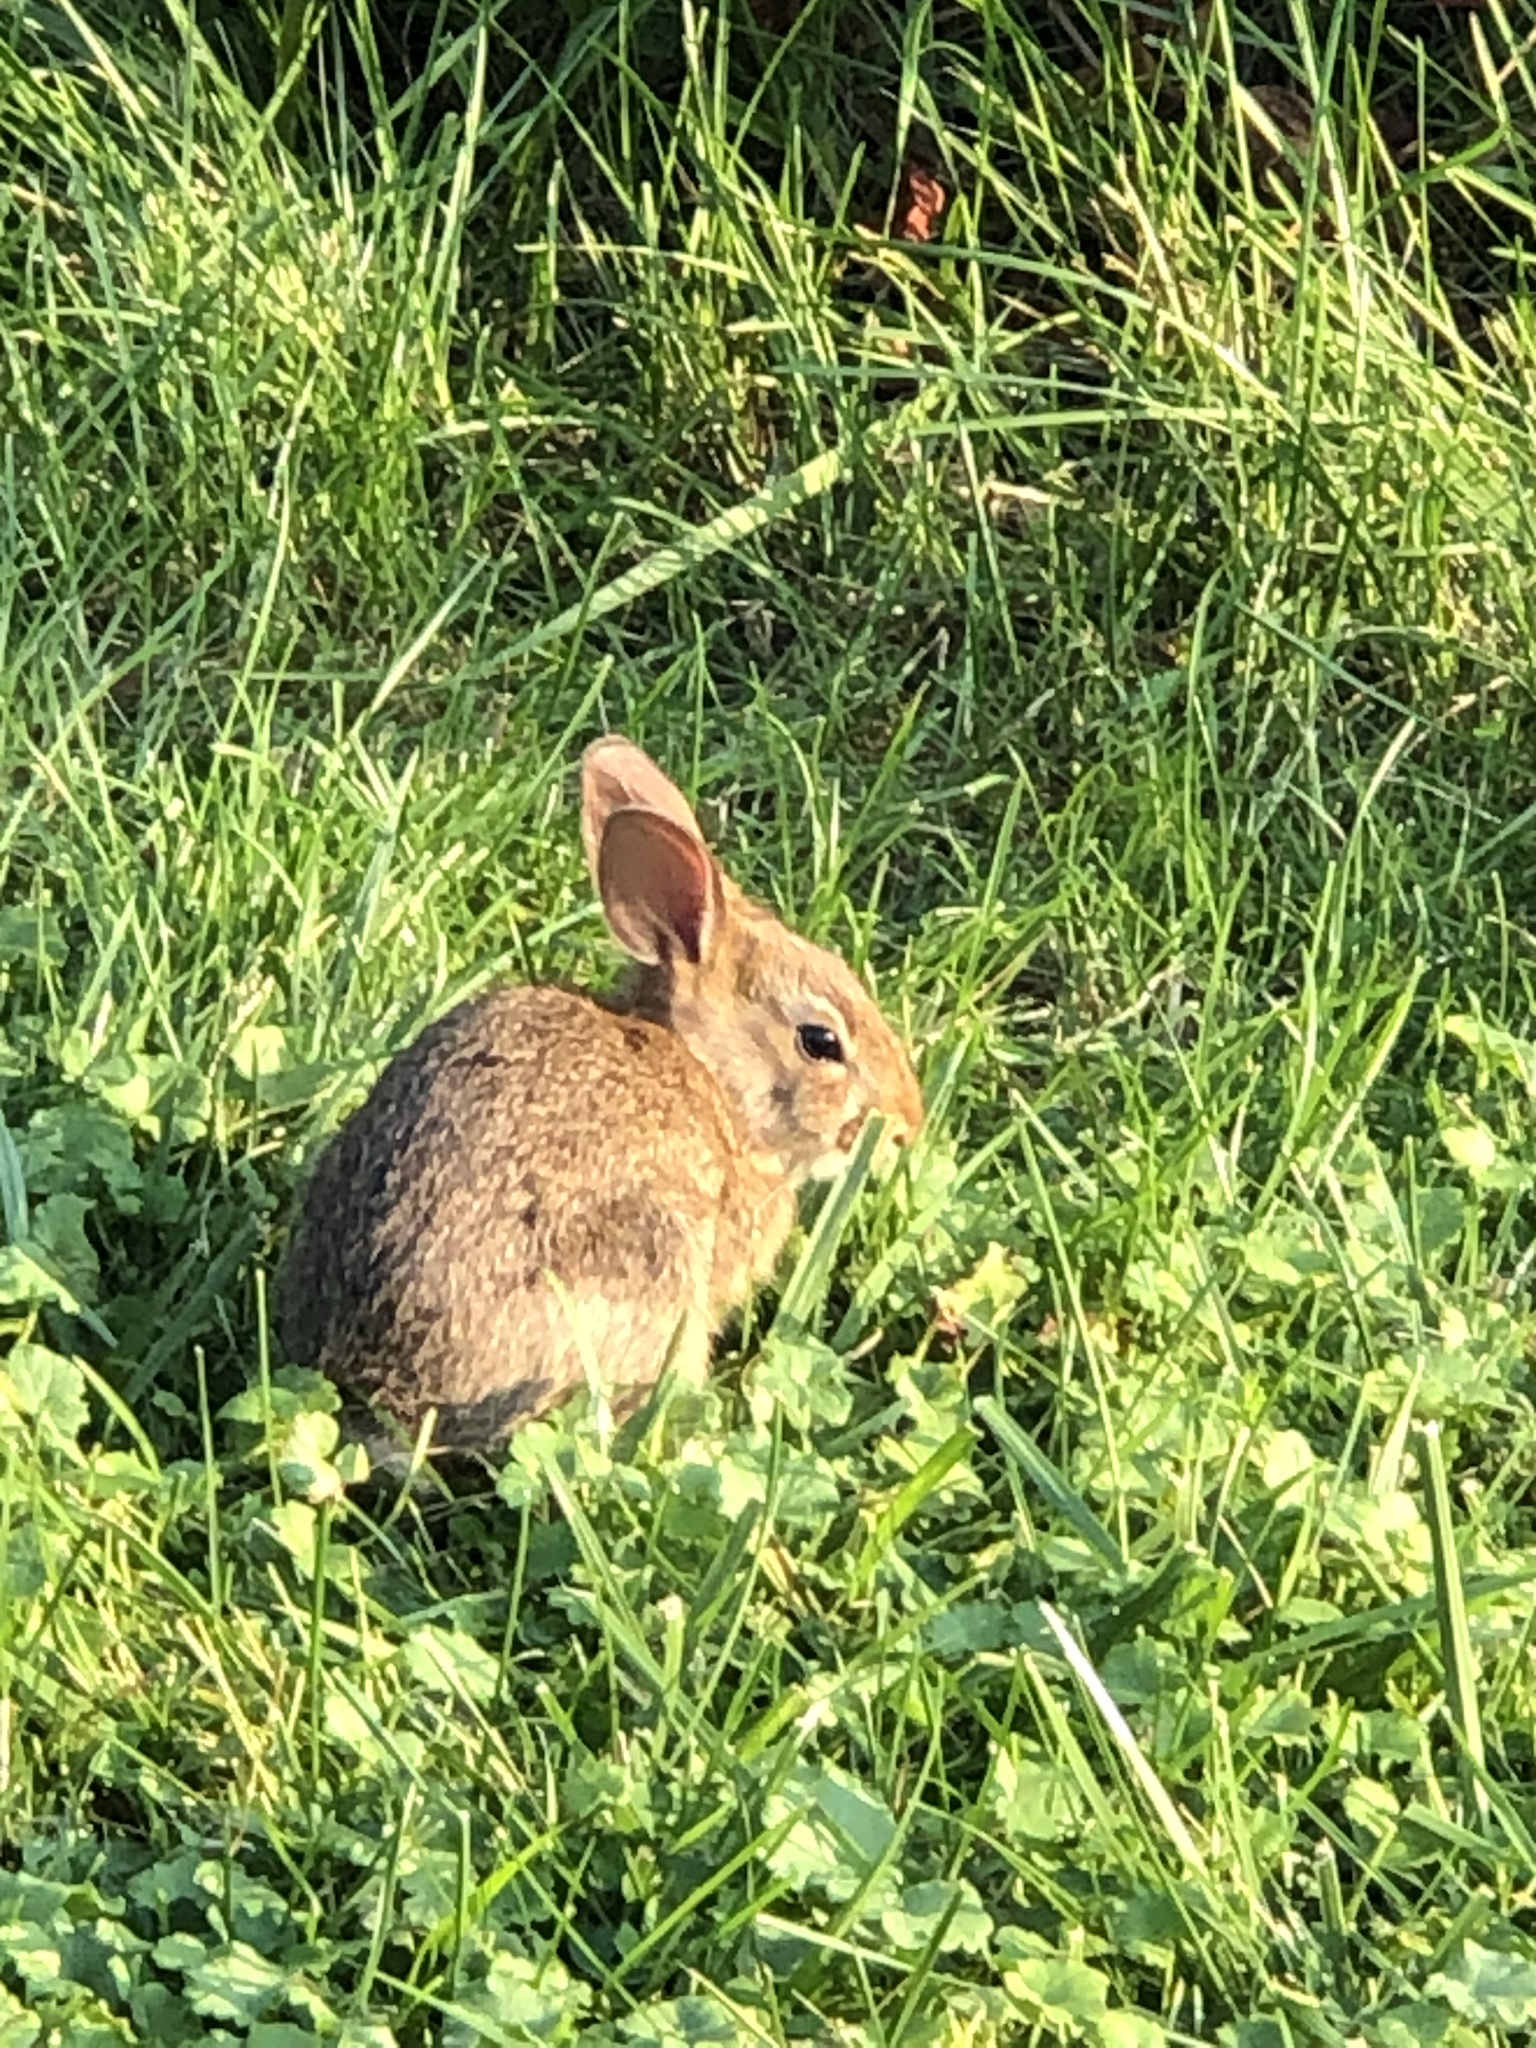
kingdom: Animalia
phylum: Chordata
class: Mammalia
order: Lagomorpha
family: Leporidae
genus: Sylvilagus
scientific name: Sylvilagus floridanus
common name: Eastern cottontail
